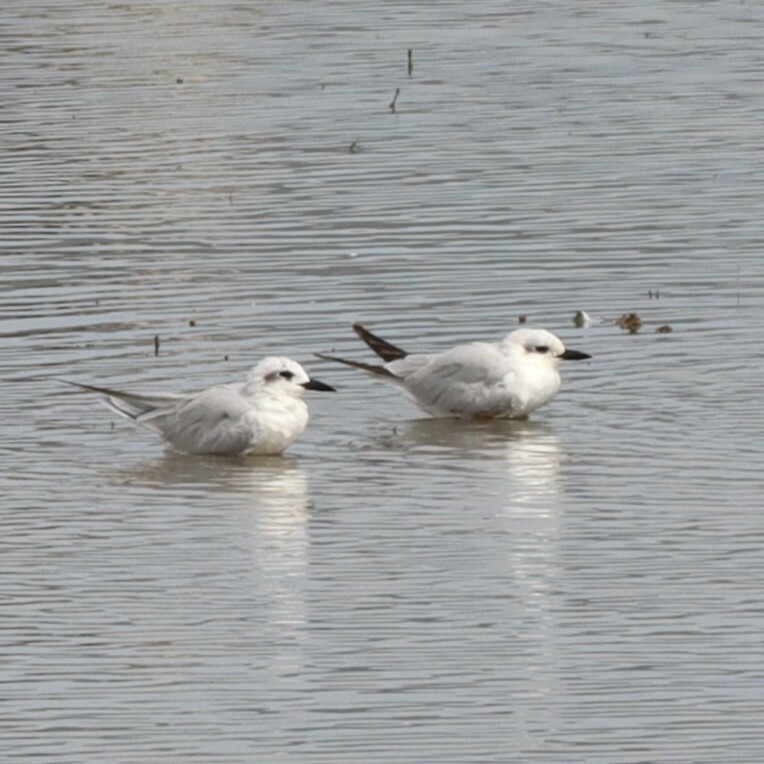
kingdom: Animalia
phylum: Chordata
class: Aves
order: Charadriiformes
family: Laridae
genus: Gelochelidon
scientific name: Gelochelidon nilotica
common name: Gull-billed tern
